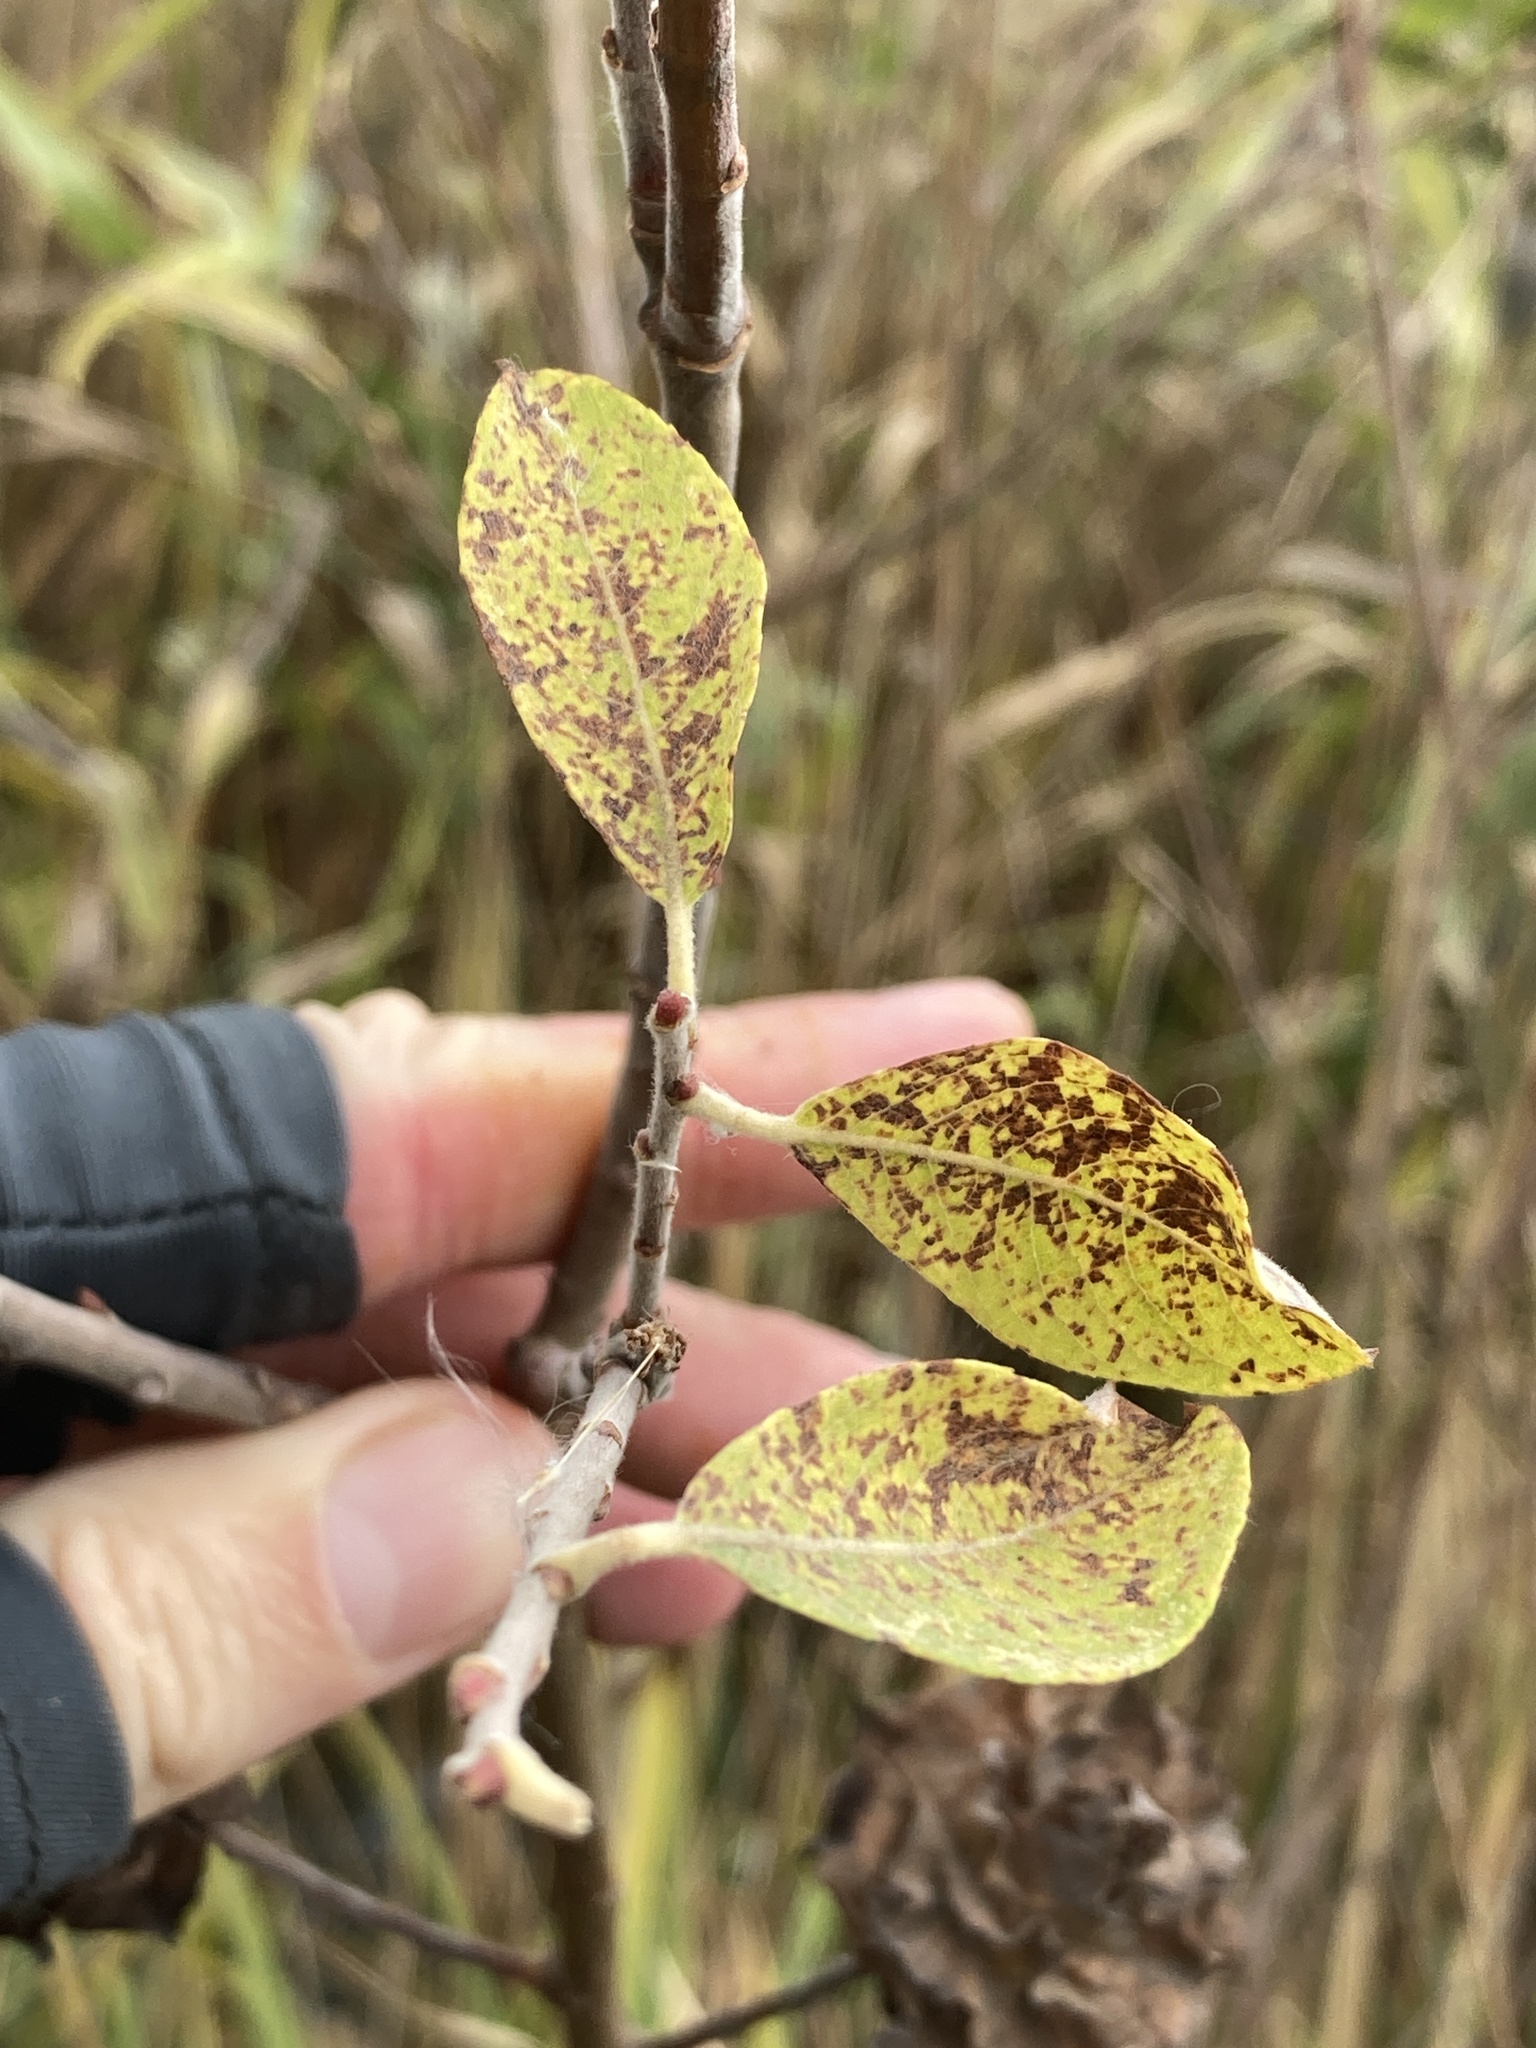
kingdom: Animalia
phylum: Arthropoda
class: Insecta
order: Diptera
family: Cecidomyiidae
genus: Rabdophaga
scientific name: Rabdophaga rosaria
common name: Willow rose gall midge
